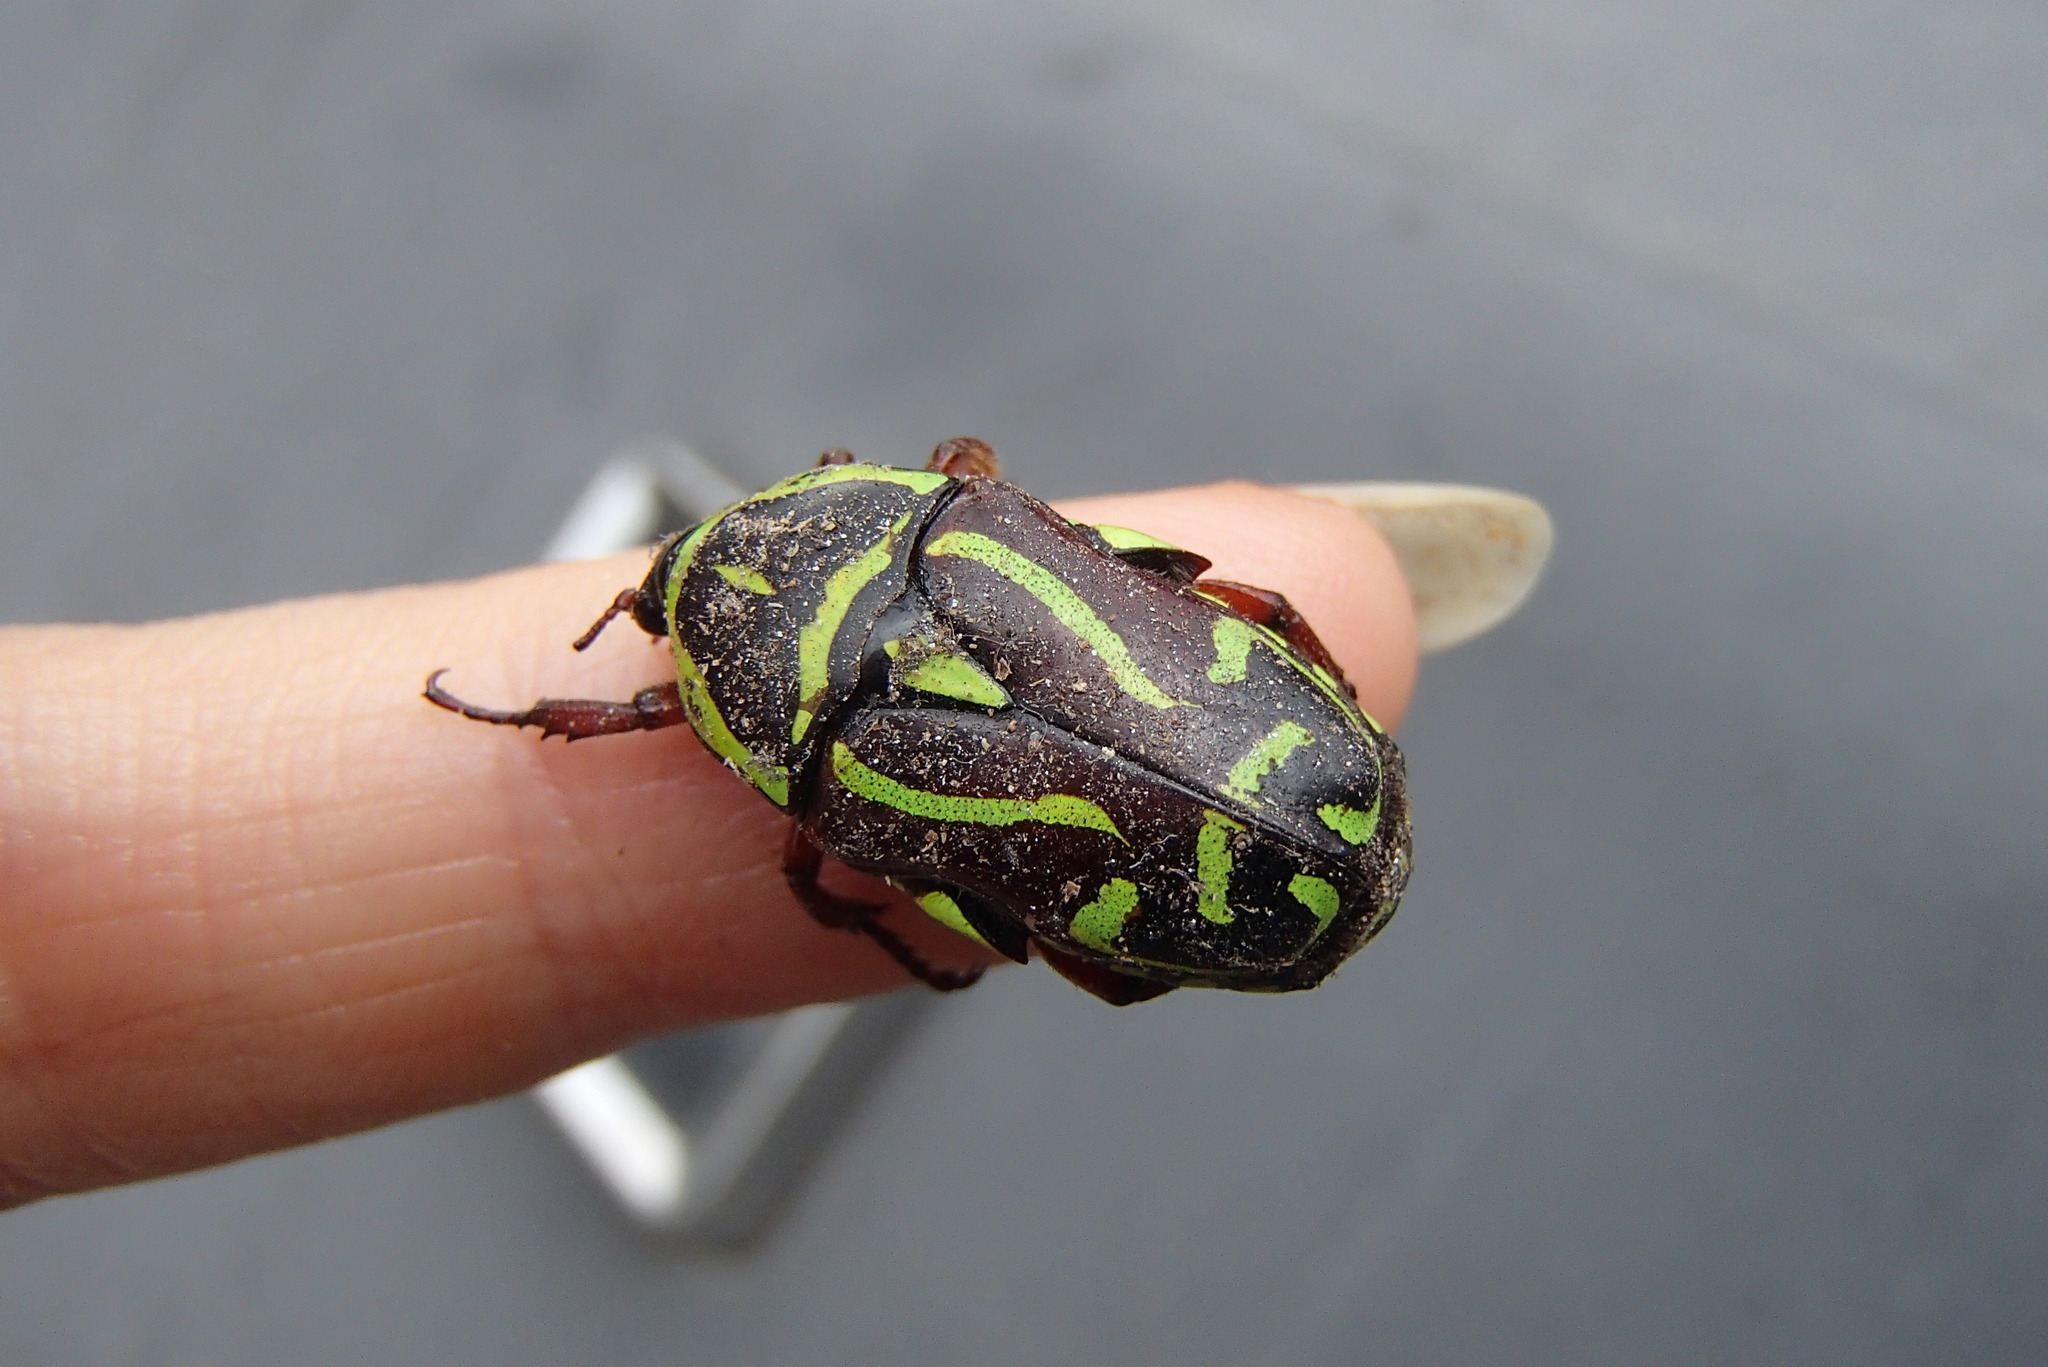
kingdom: Animalia
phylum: Arthropoda
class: Insecta
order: Coleoptera
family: Scarabaeidae
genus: Eupoecila
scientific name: Eupoecila australasiae
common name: Fiddler beetle
